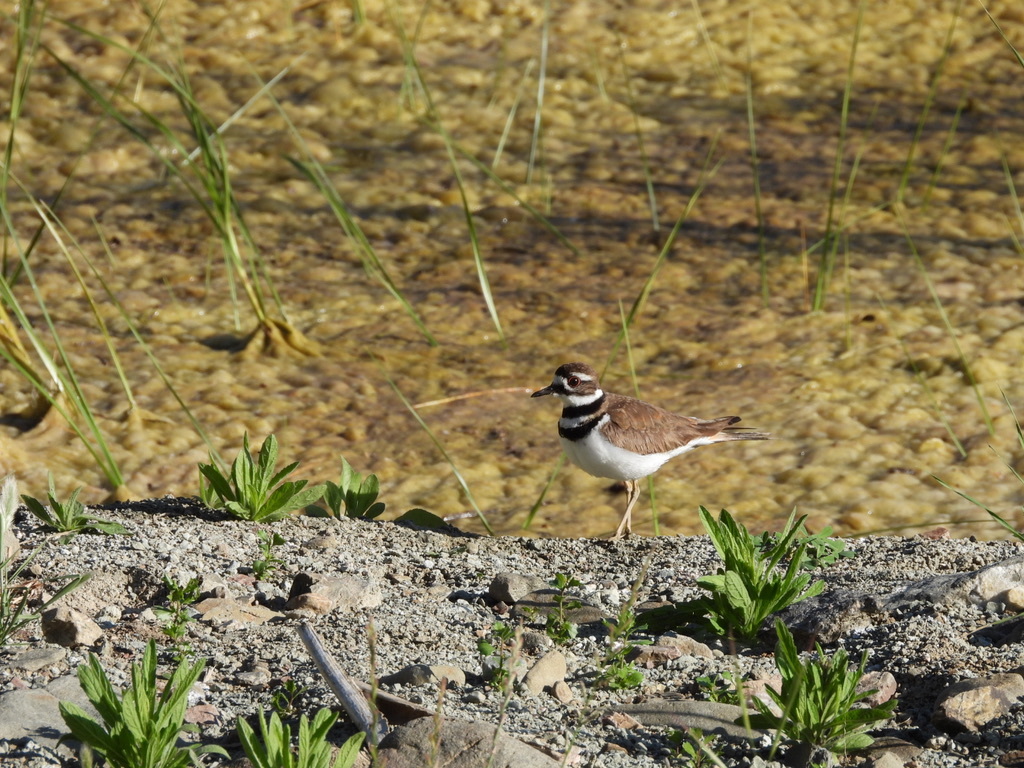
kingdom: Animalia
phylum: Chordata
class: Aves
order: Charadriiformes
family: Charadriidae
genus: Charadrius
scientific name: Charadrius vociferus
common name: Killdeer
